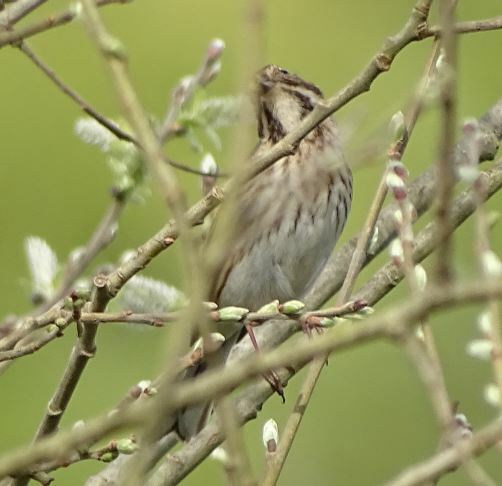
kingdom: Animalia
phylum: Chordata
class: Aves
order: Passeriformes
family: Emberizidae
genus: Emberiza
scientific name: Emberiza schoeniclus
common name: Reed bunting
